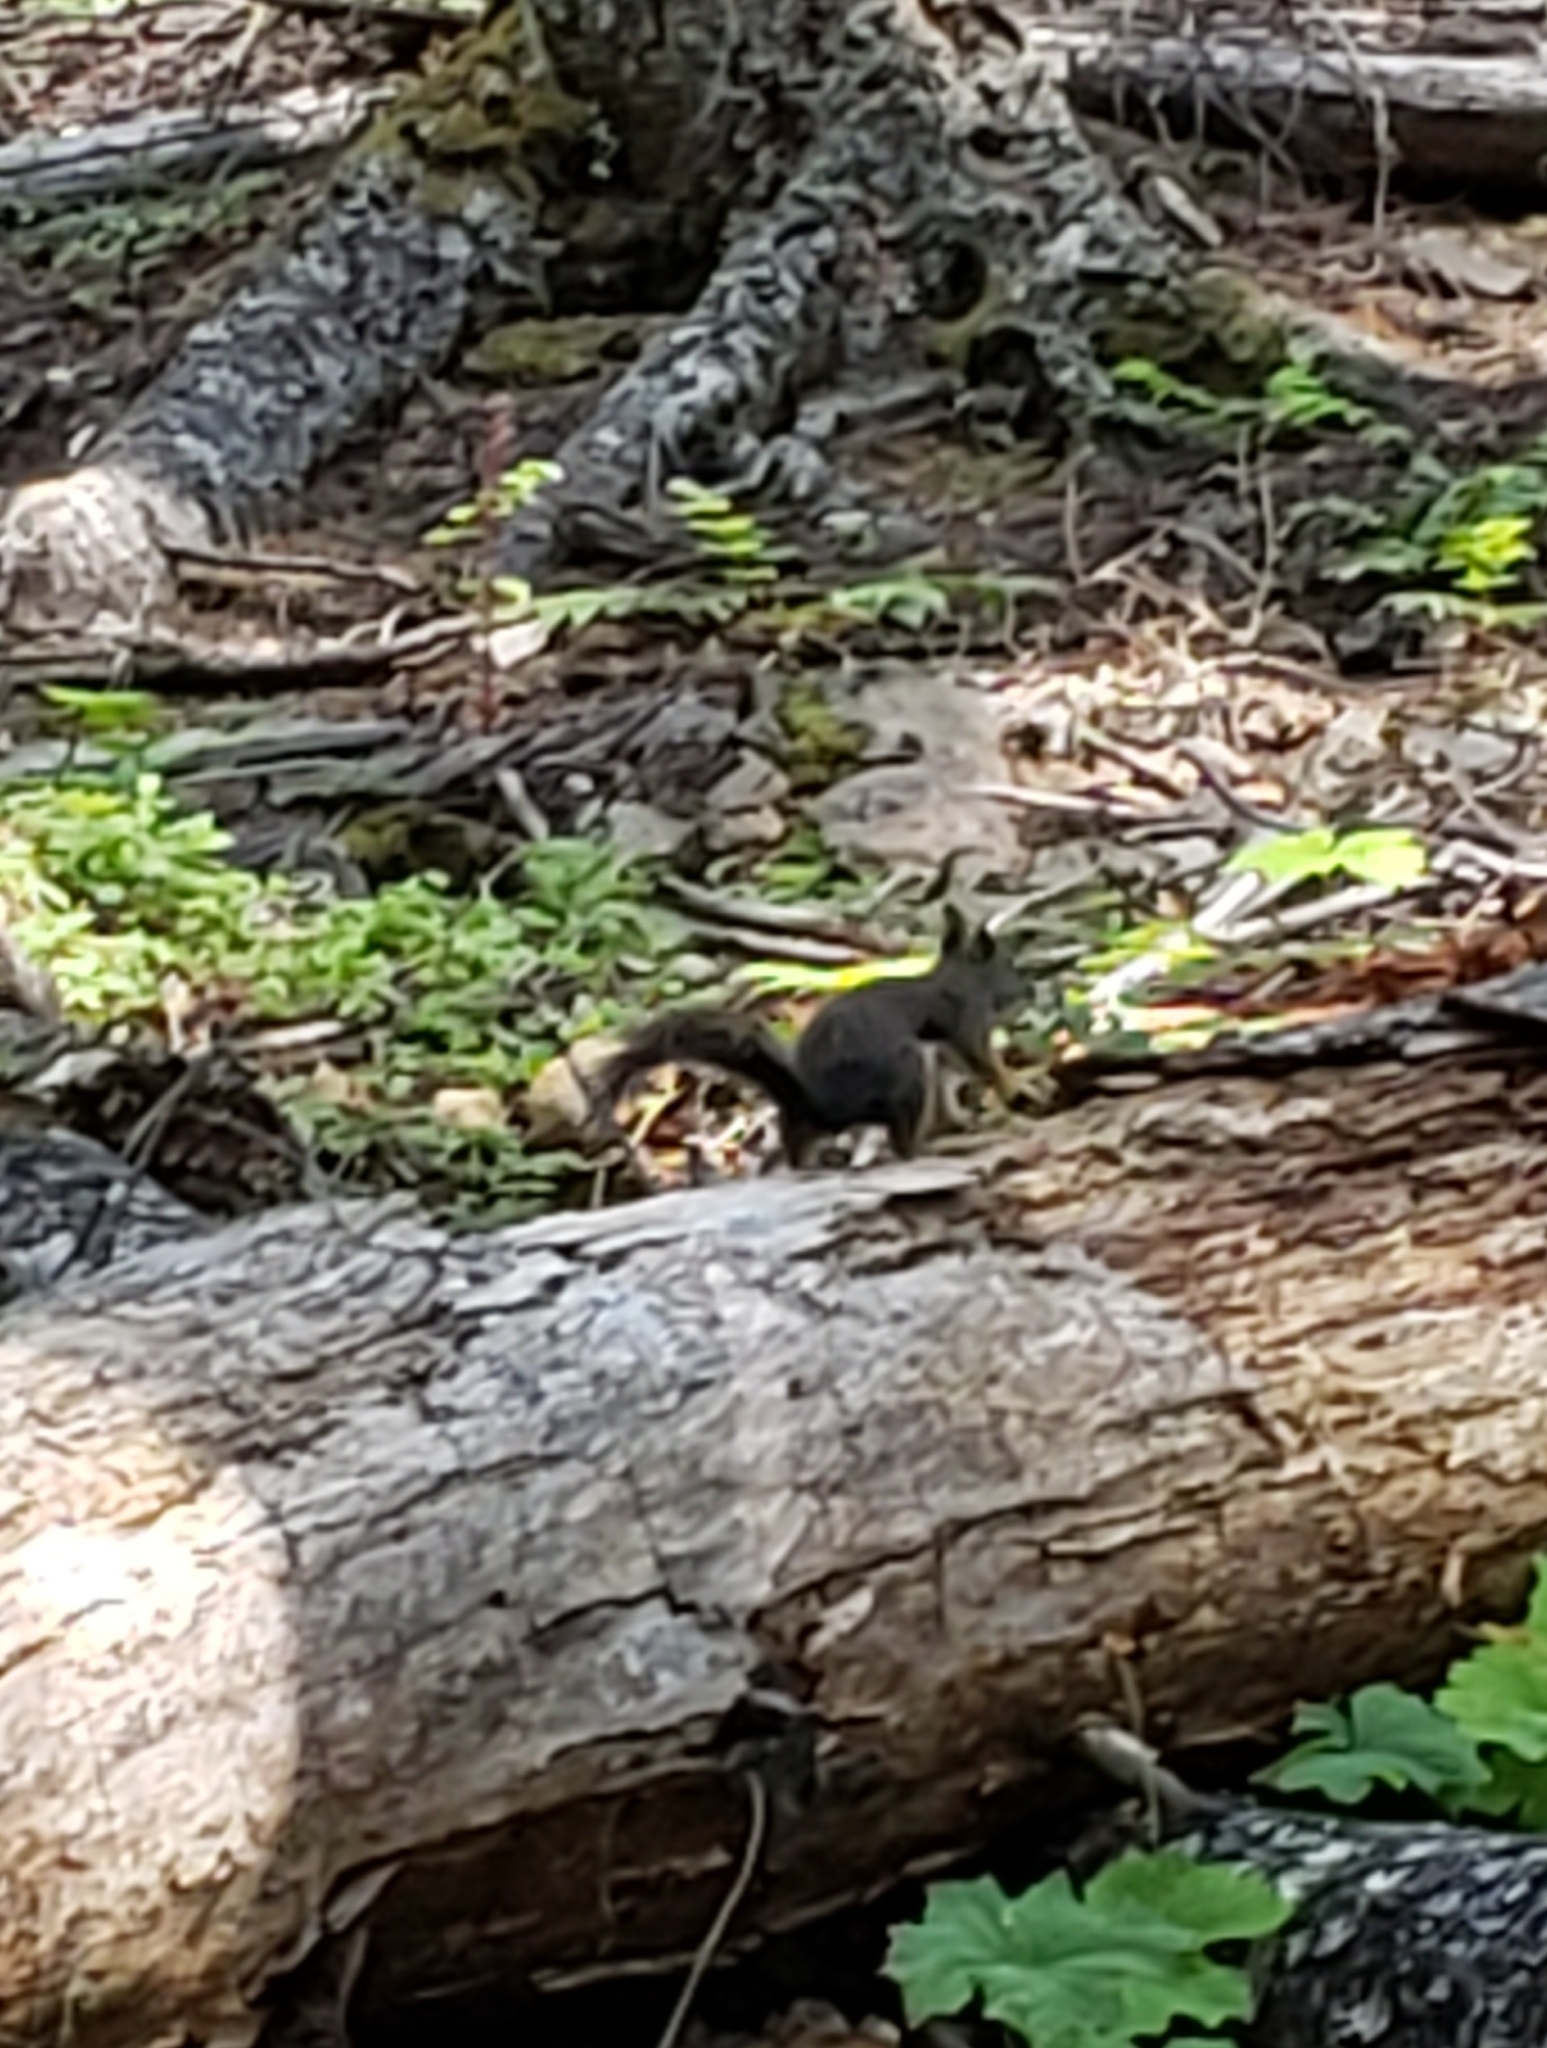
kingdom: Animalia
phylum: Chordata
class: Mammalia
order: Rodentia
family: Sciuridae
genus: Tamiasciurus
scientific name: Tamiasciurus douglasii
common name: Douglas's squirrel
